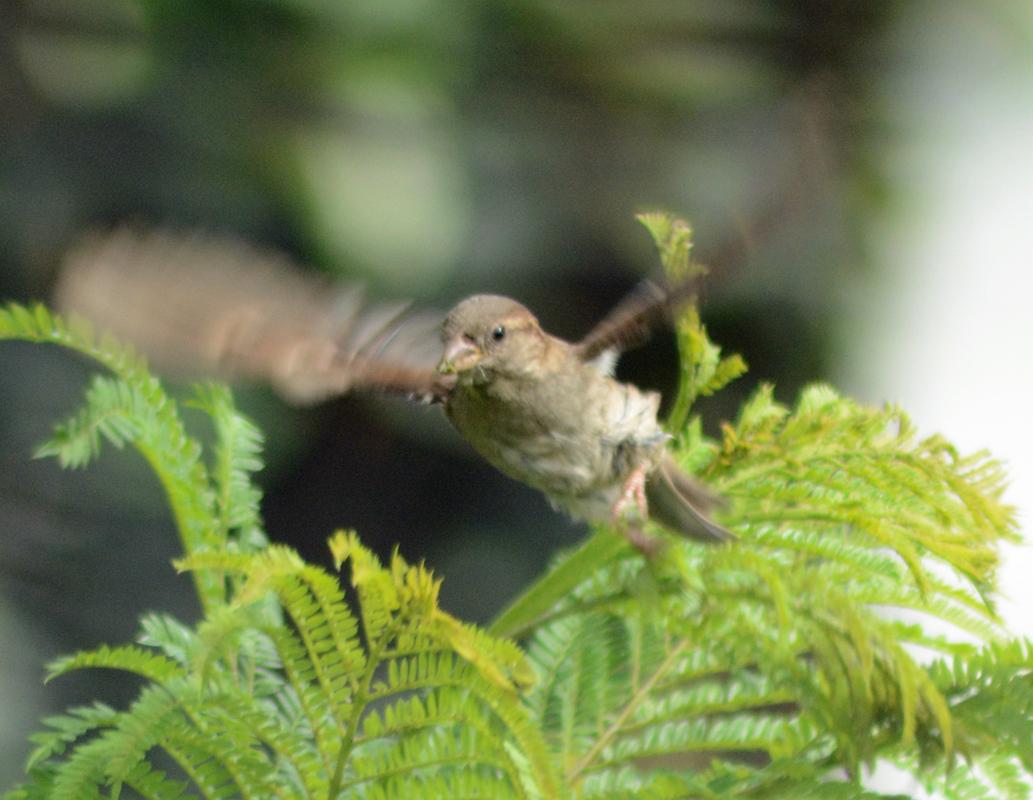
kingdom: Animalia
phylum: Chordata
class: Aves
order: Passeriformes
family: Passeridae
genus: Passer
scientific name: Passer domesticus
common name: House sparrow
